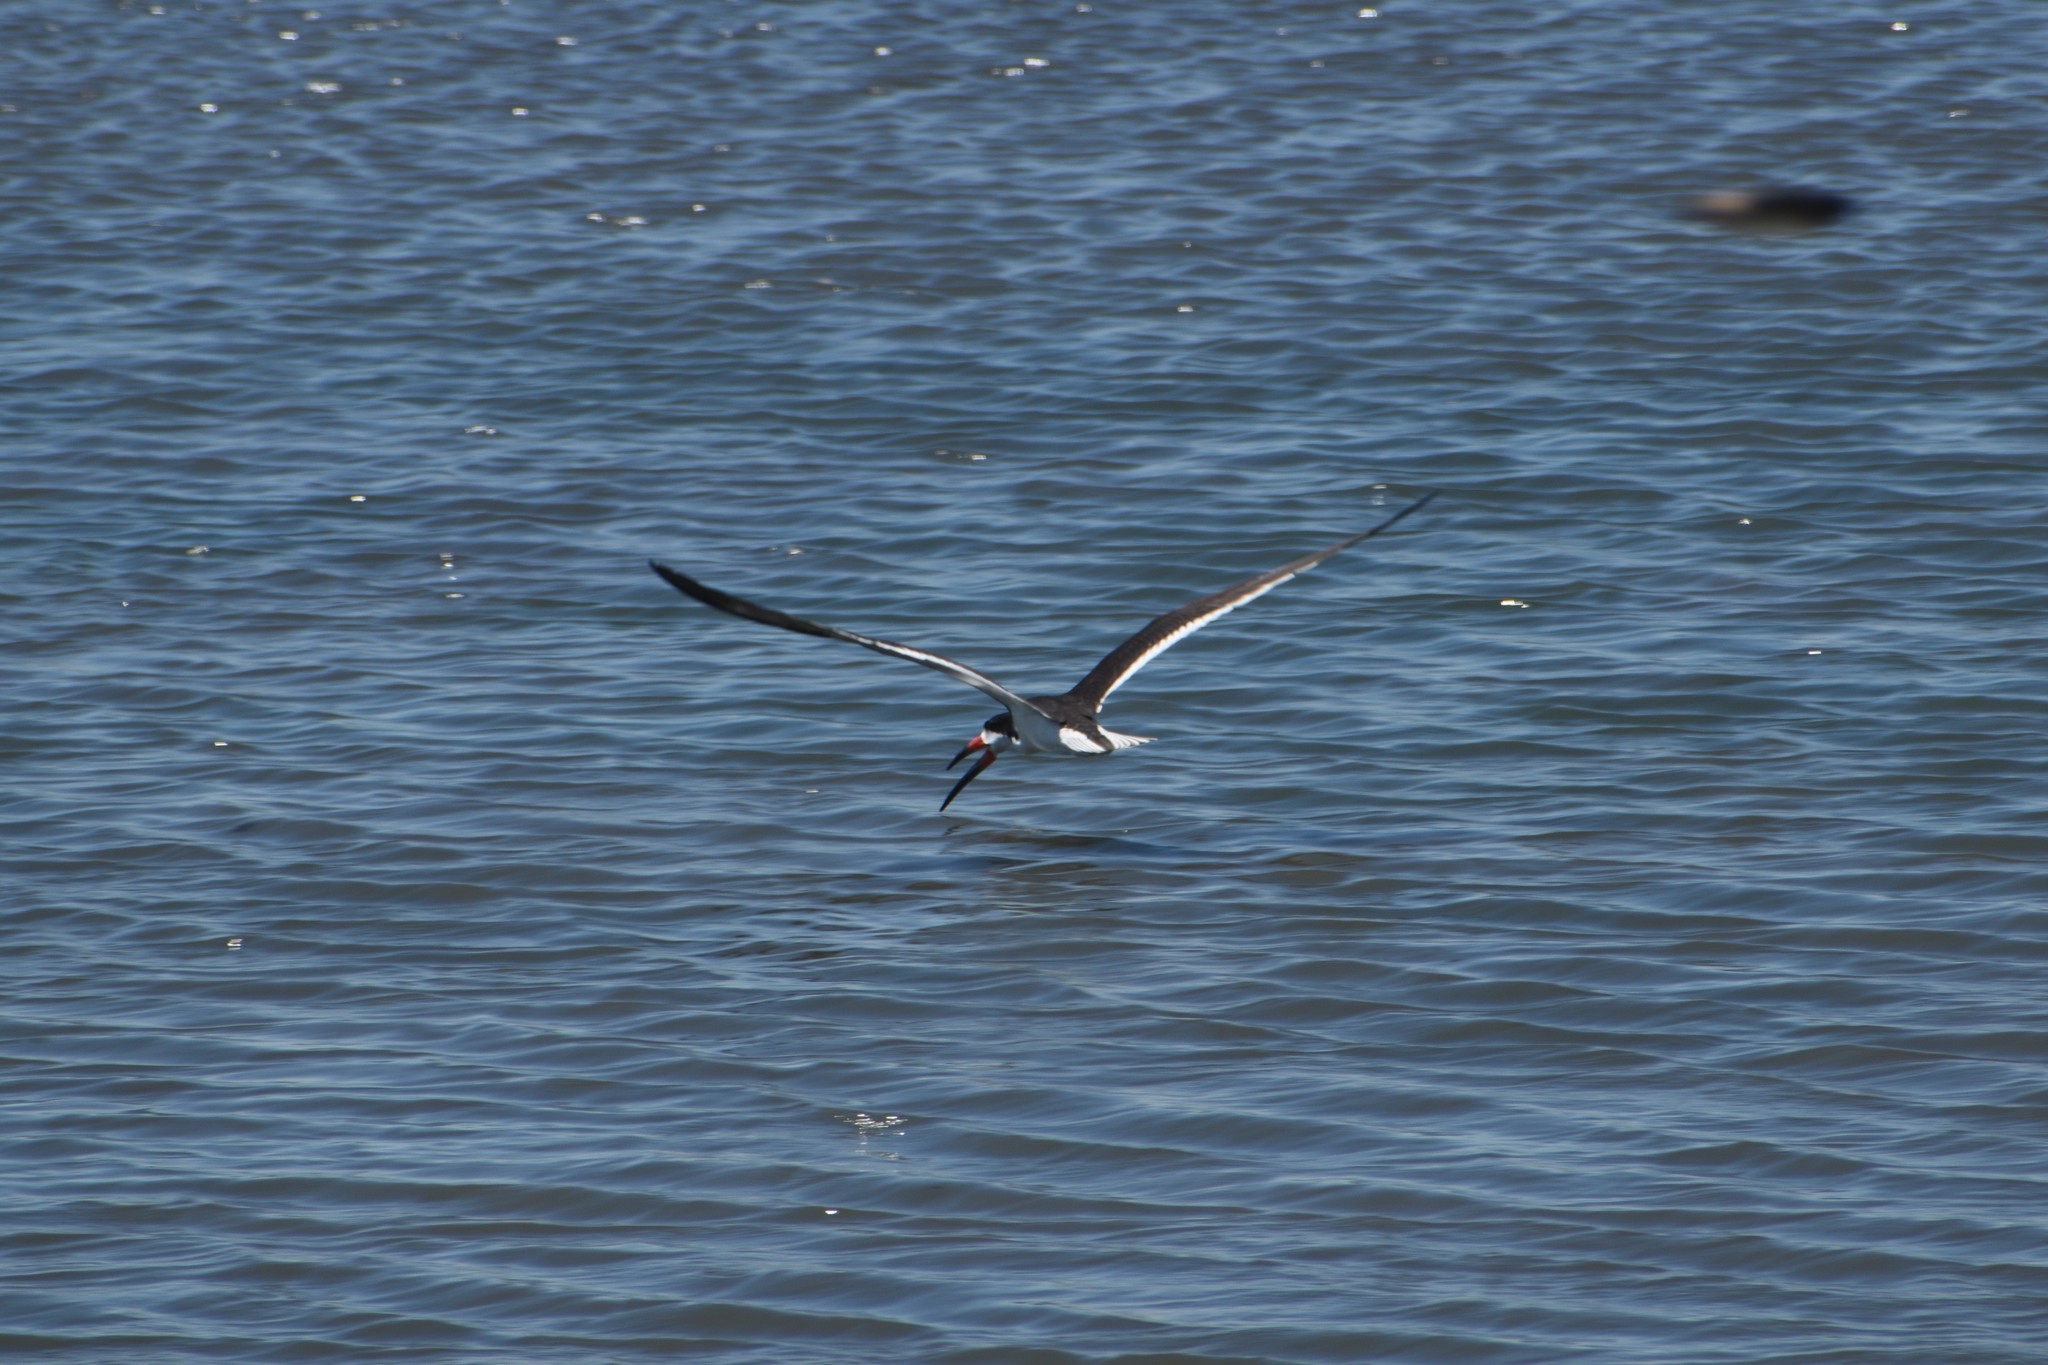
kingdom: Animalia
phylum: Chordata
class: Aves
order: Charadriiformes
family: Laridae
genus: Rynchops
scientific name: Rynchops niger
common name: Black skimmer
